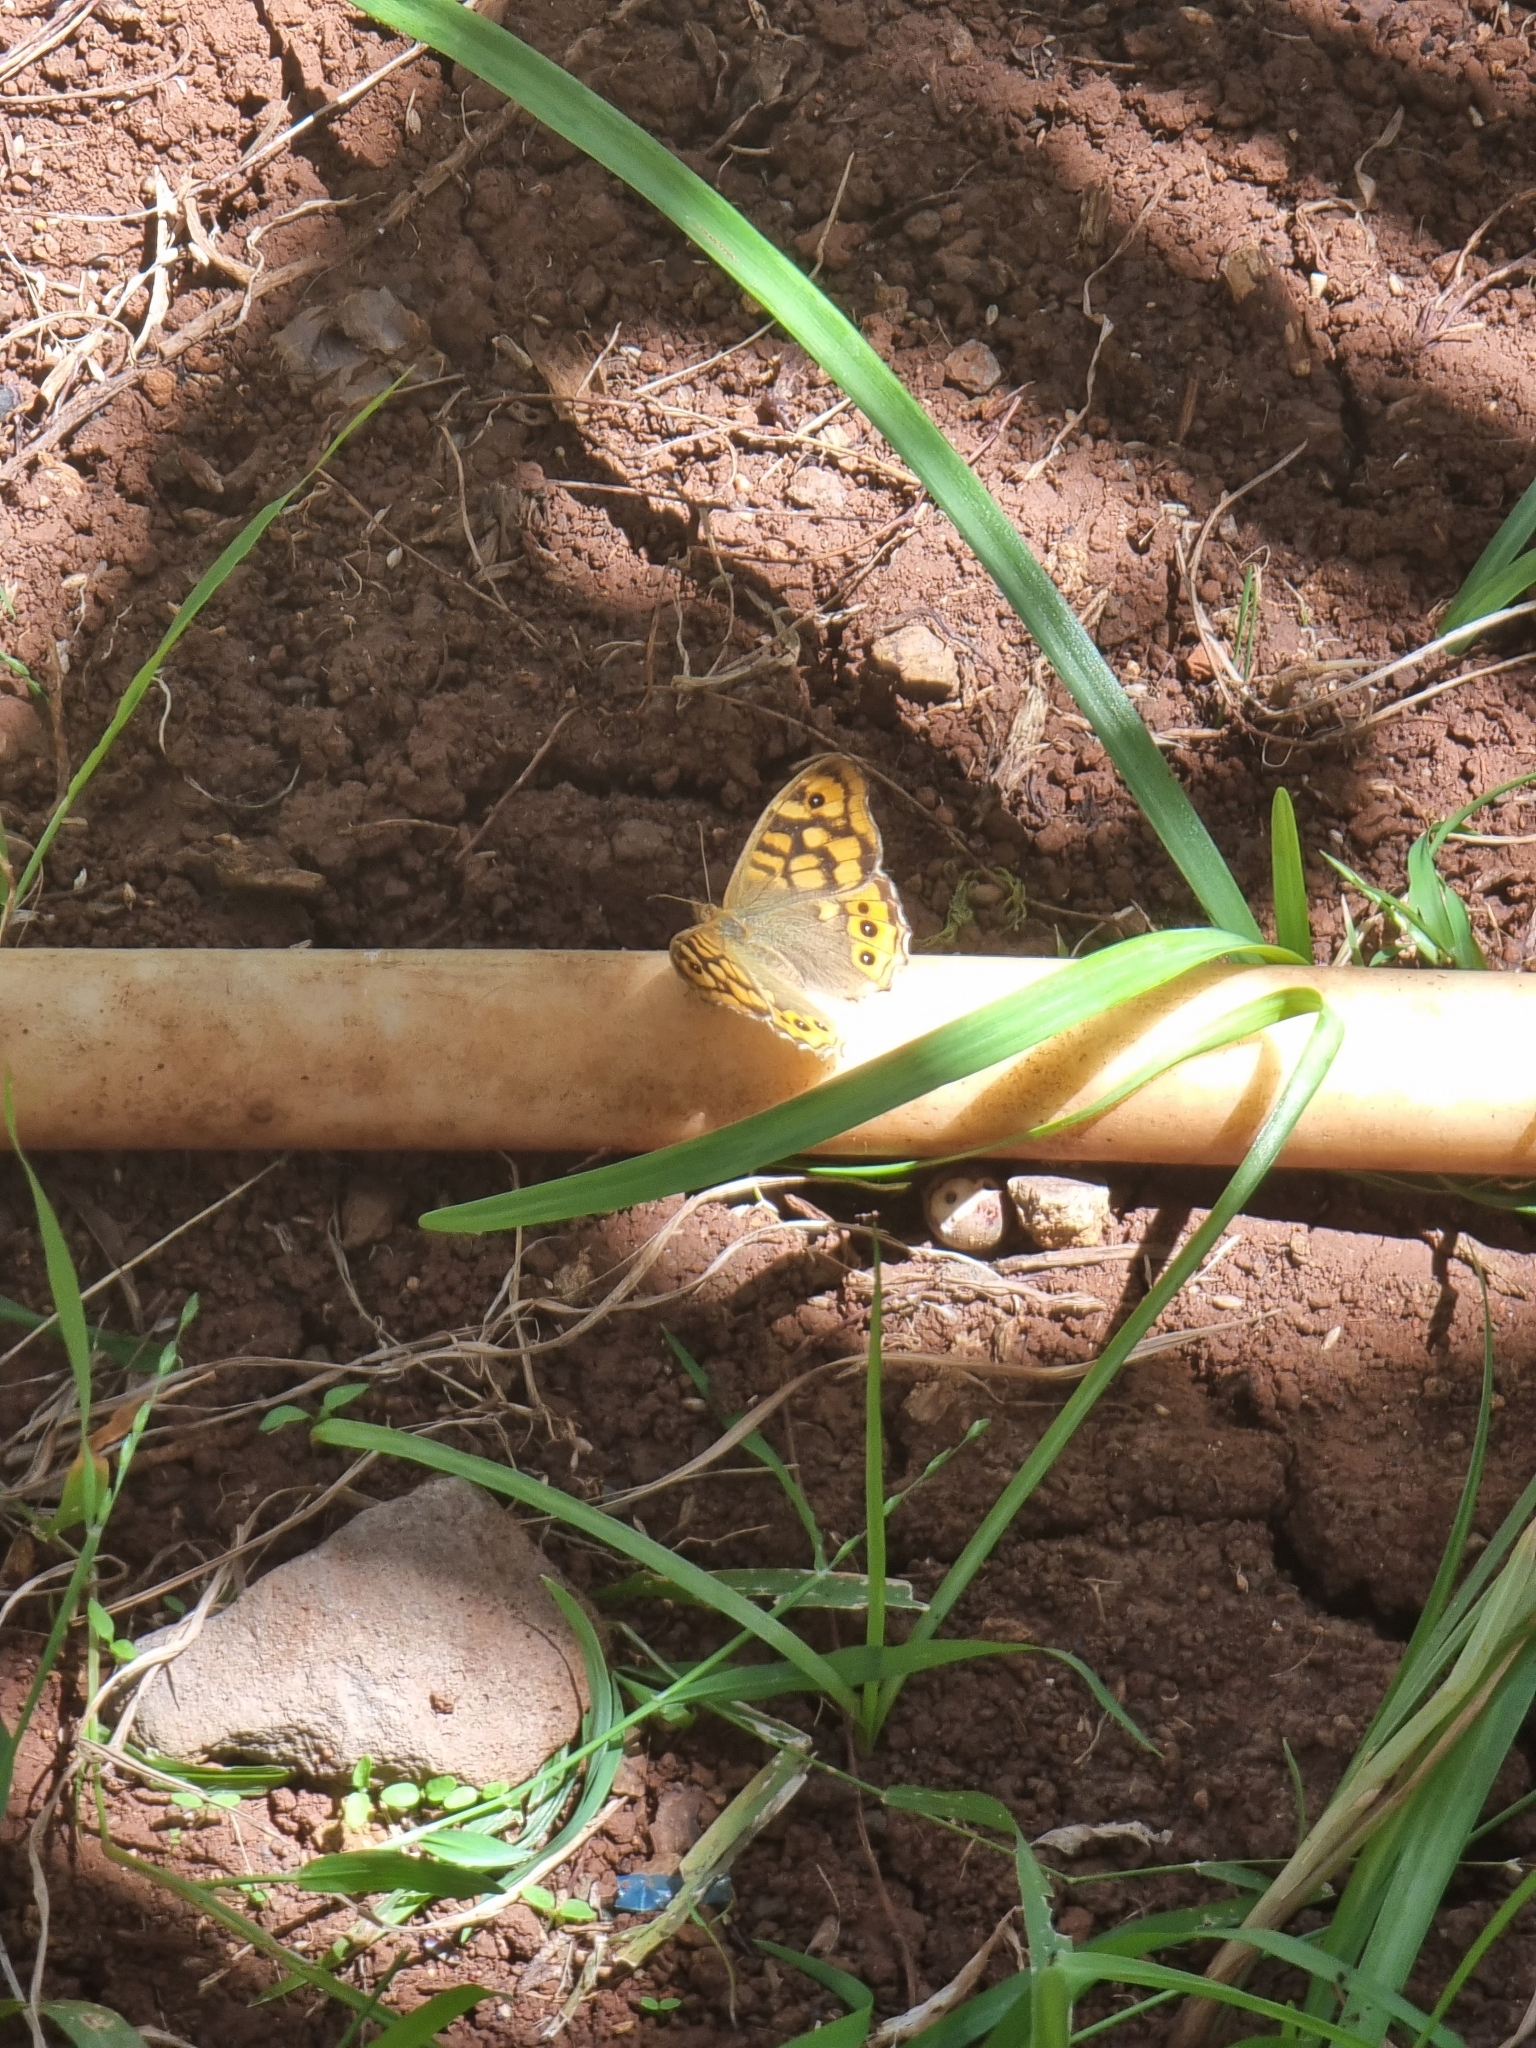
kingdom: Animalia
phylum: Arthropoda
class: Insecta
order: Lepidoptera
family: Nymphalidae
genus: Pararge
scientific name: Pararge aegeria
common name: Speckled wood
